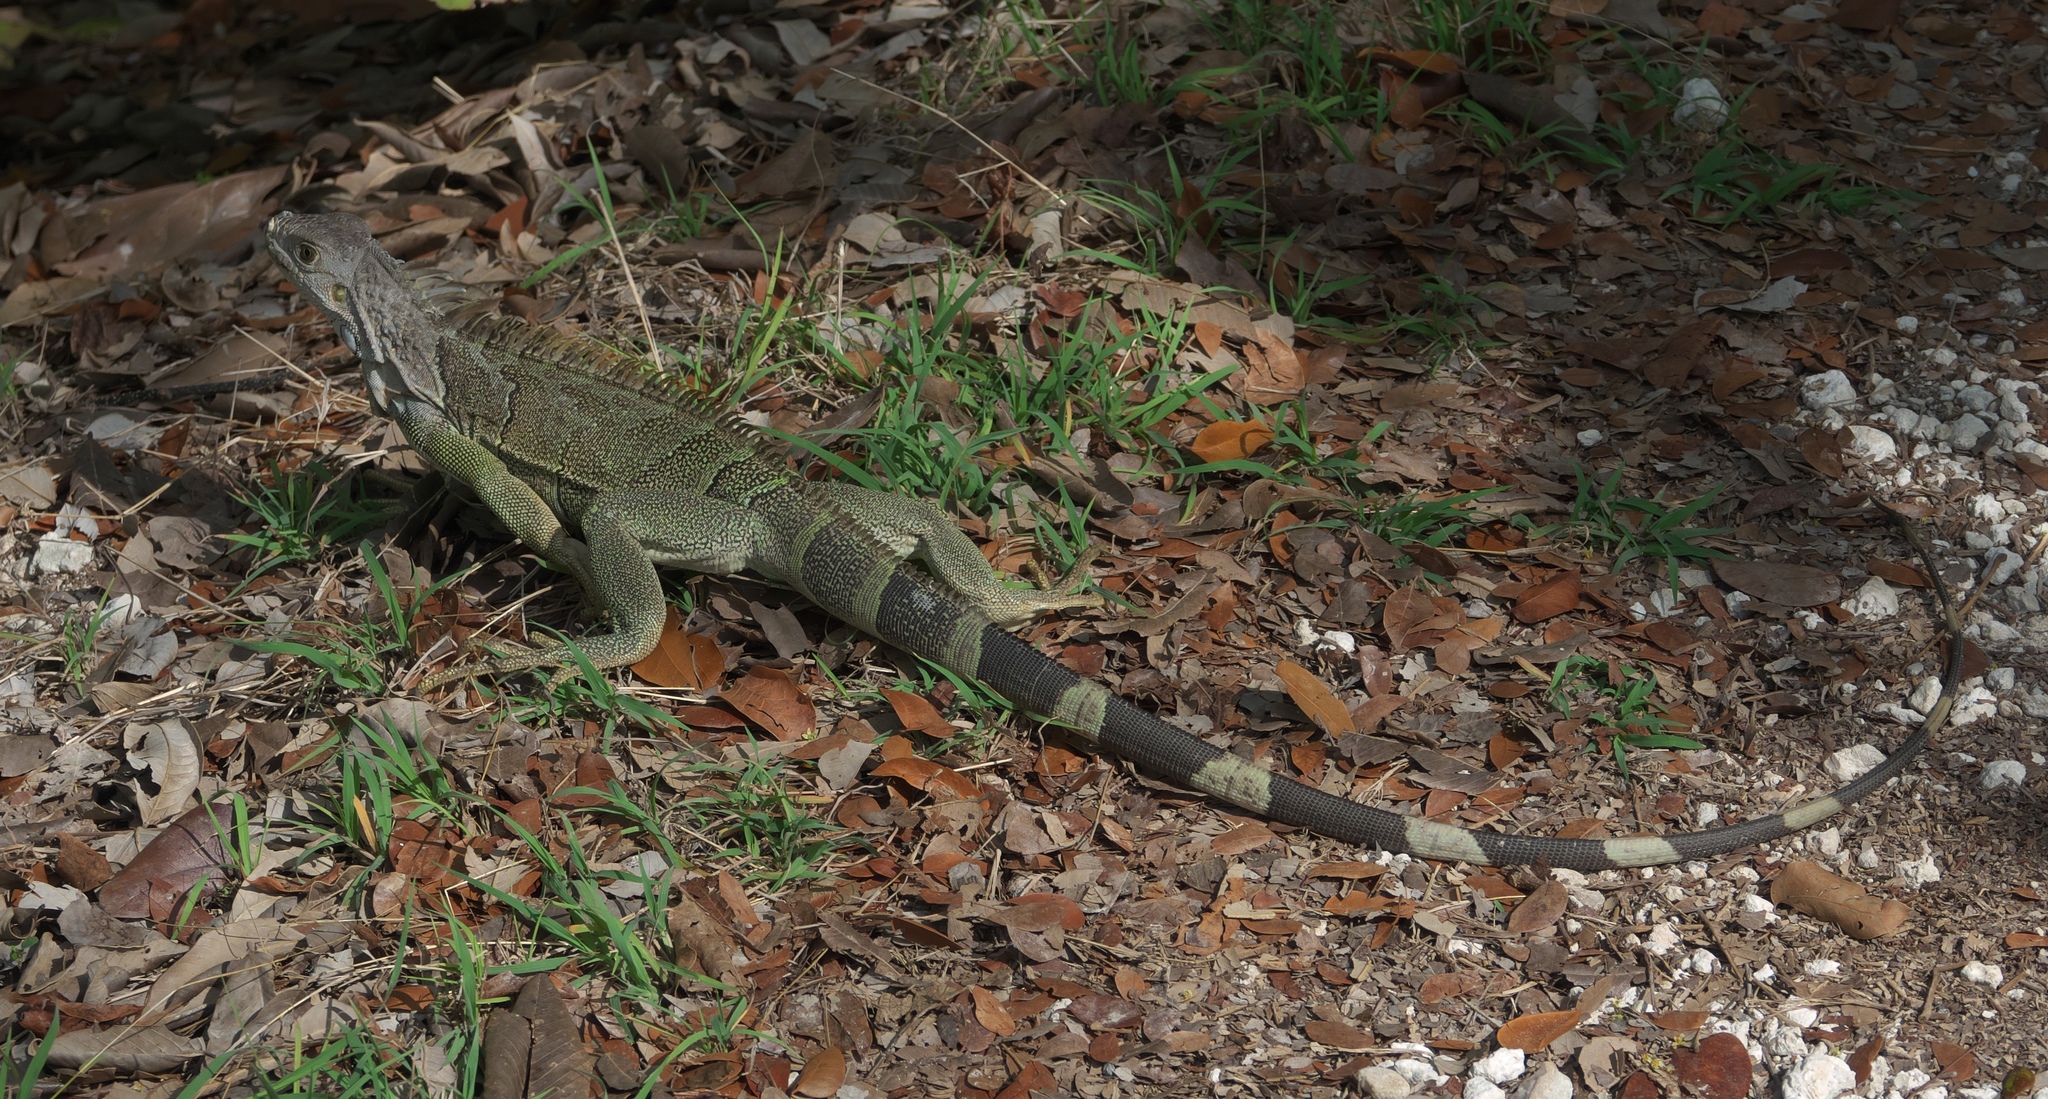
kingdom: Animalia
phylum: Chordata
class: Squamata
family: Iguanidae
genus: Iguana
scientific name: Iguana iguana
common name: Green iguana
